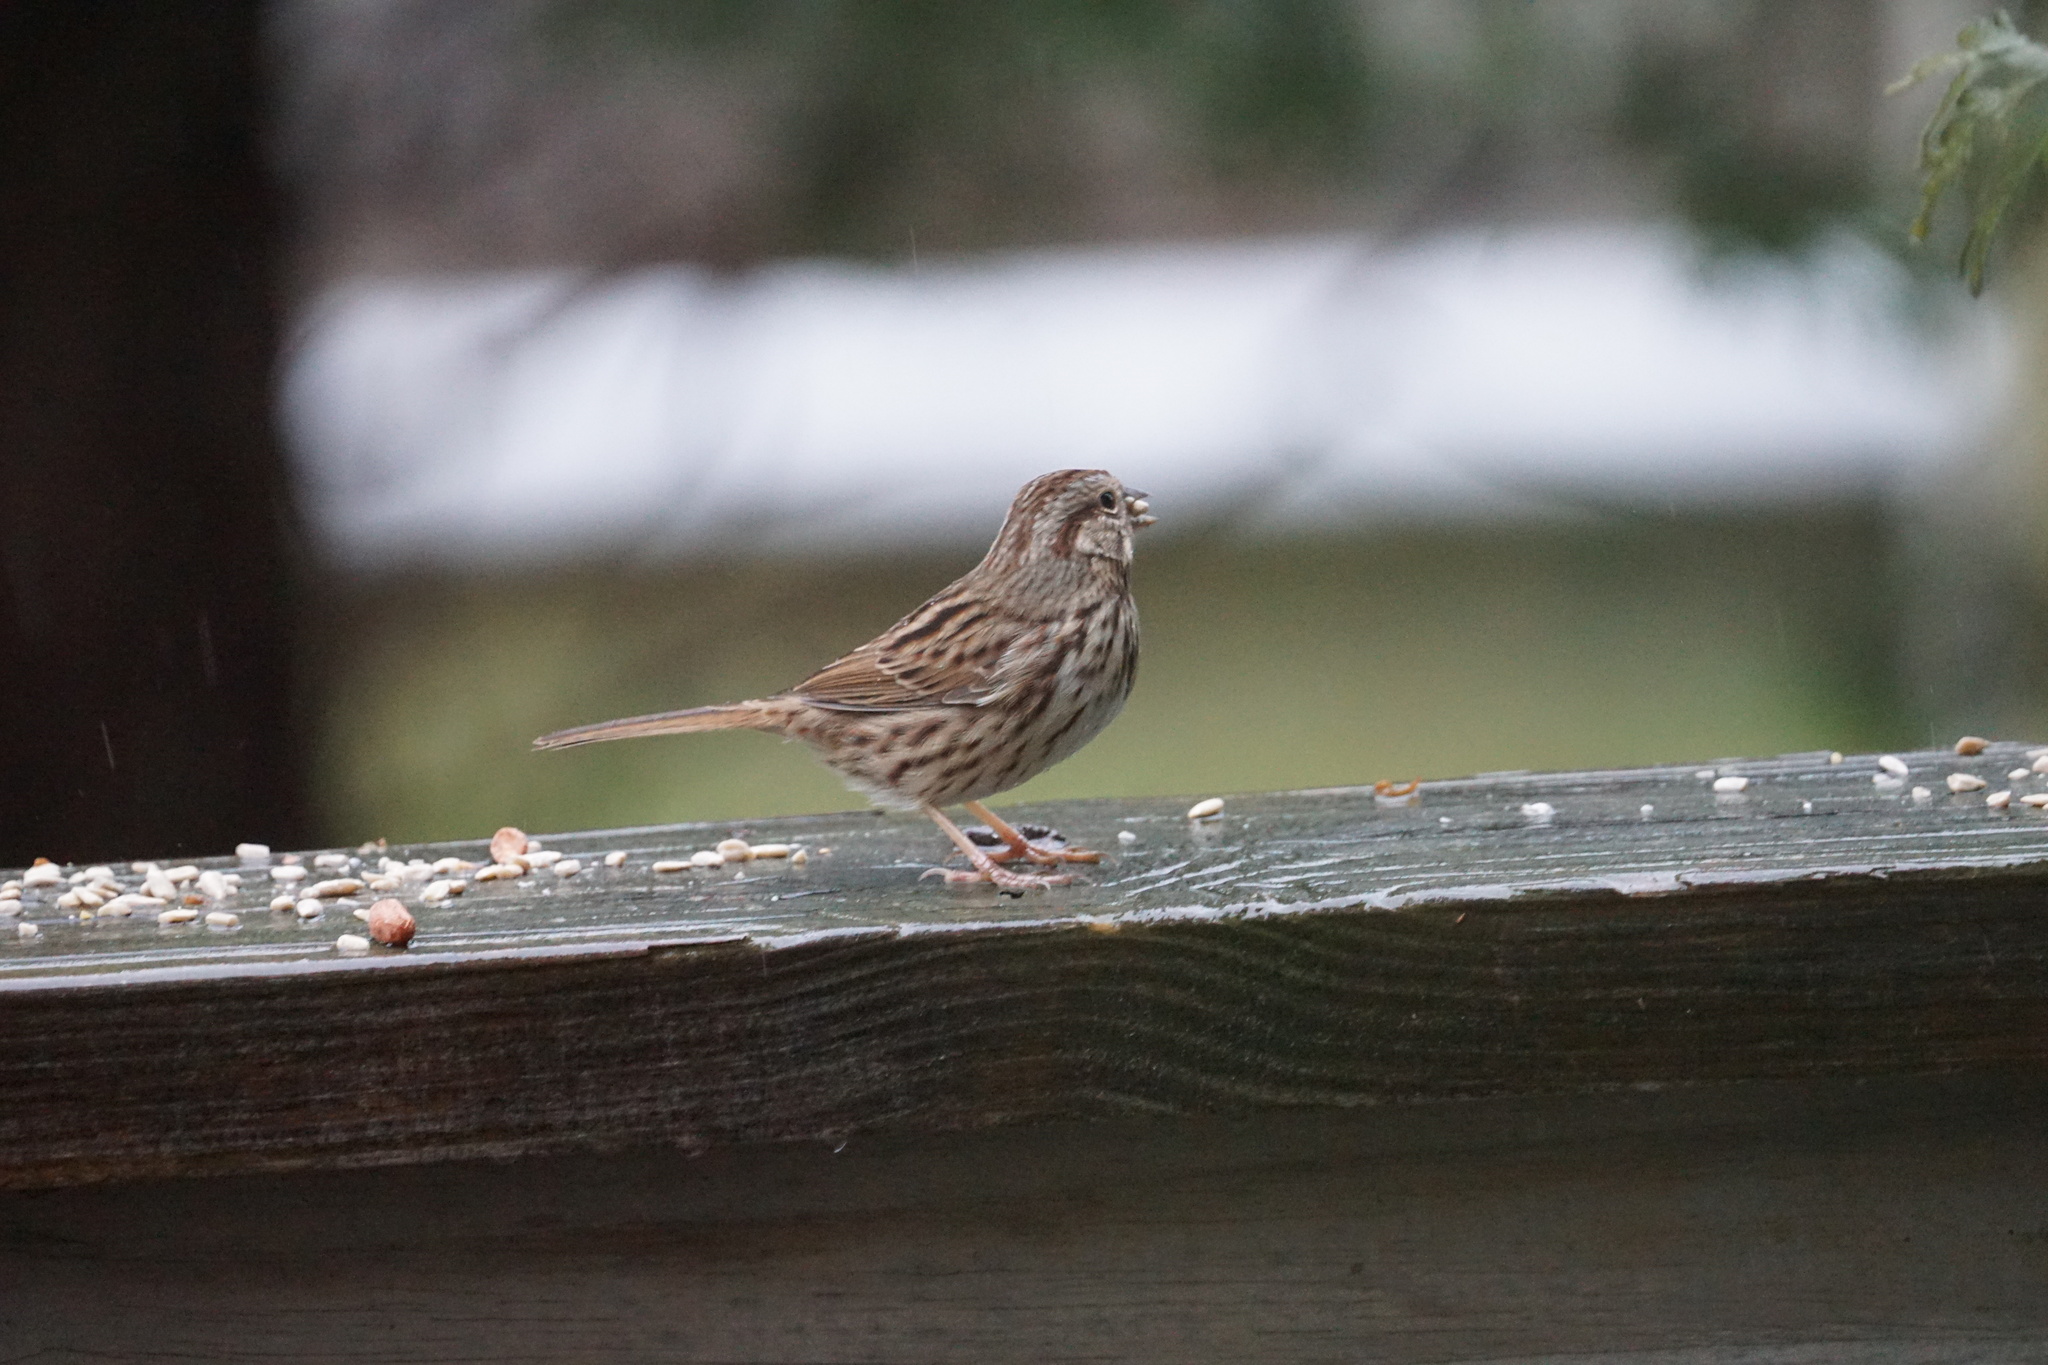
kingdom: Animalia
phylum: Chordata
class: Aves
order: Passeriformes
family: Passerellidae
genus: Melospiza
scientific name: Melospiza melodia
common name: Song sparrow
